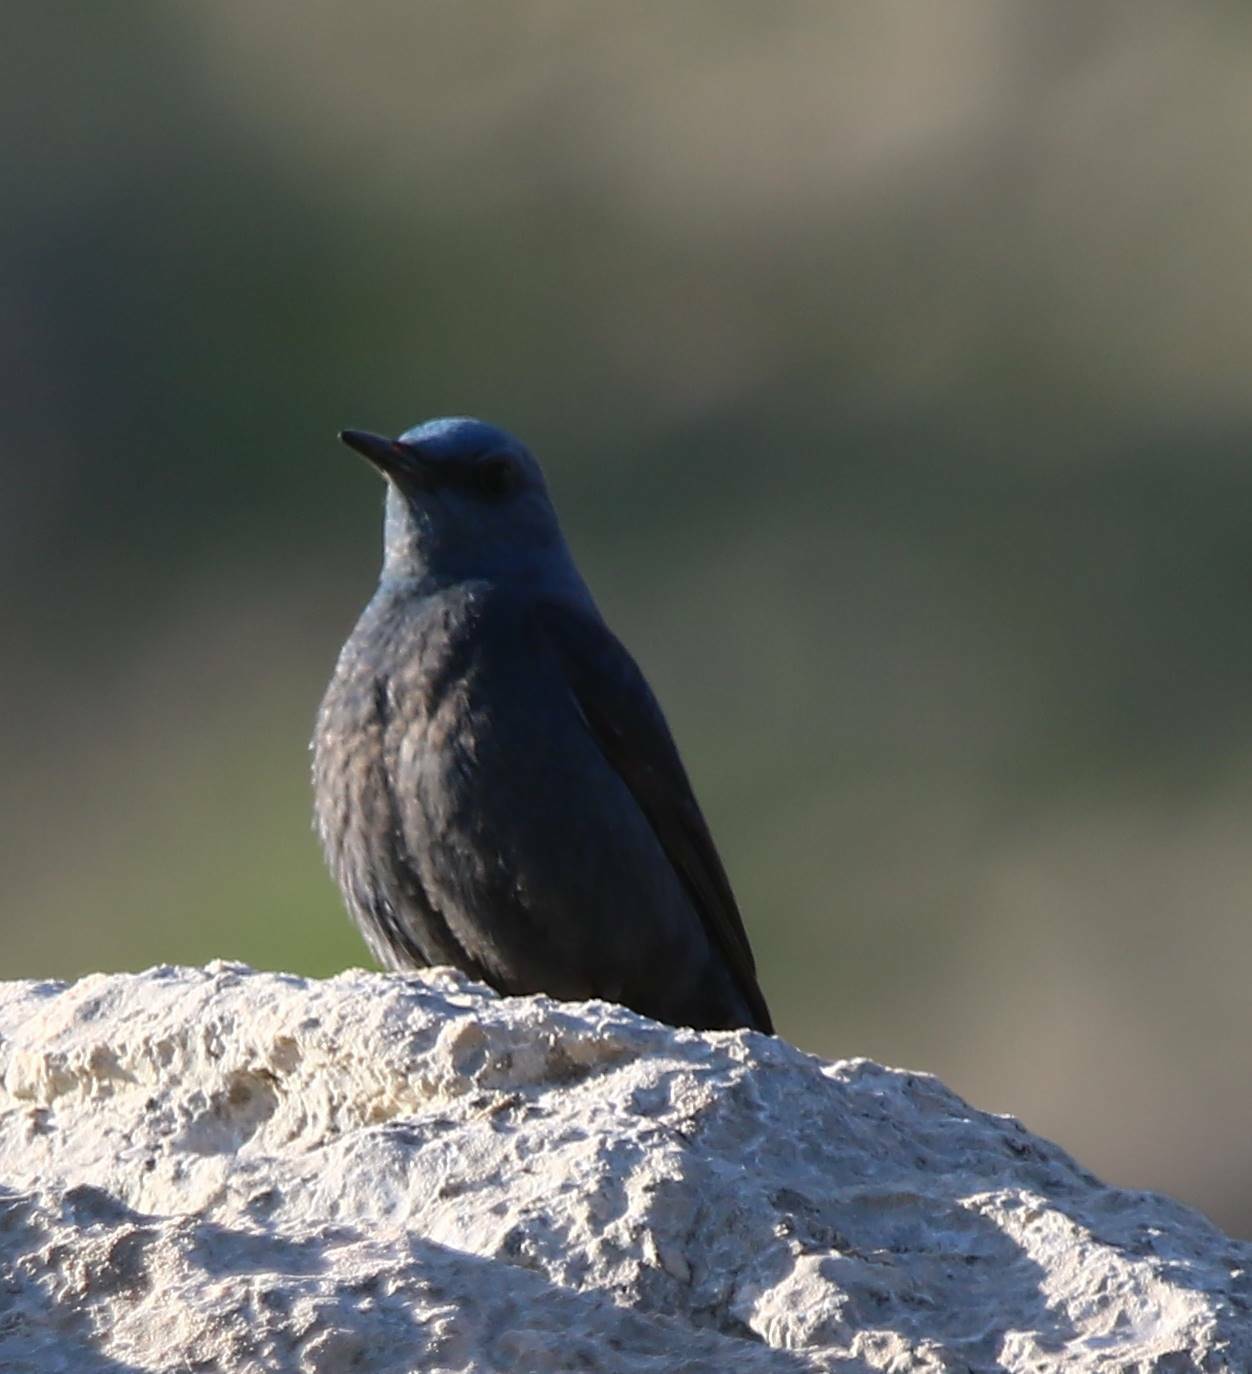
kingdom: Animalia
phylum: Chordata
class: Aves
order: Passeriformes
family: Muscicapidae
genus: Monticola
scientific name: Monticola solitarius
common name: Blue rock thrush
